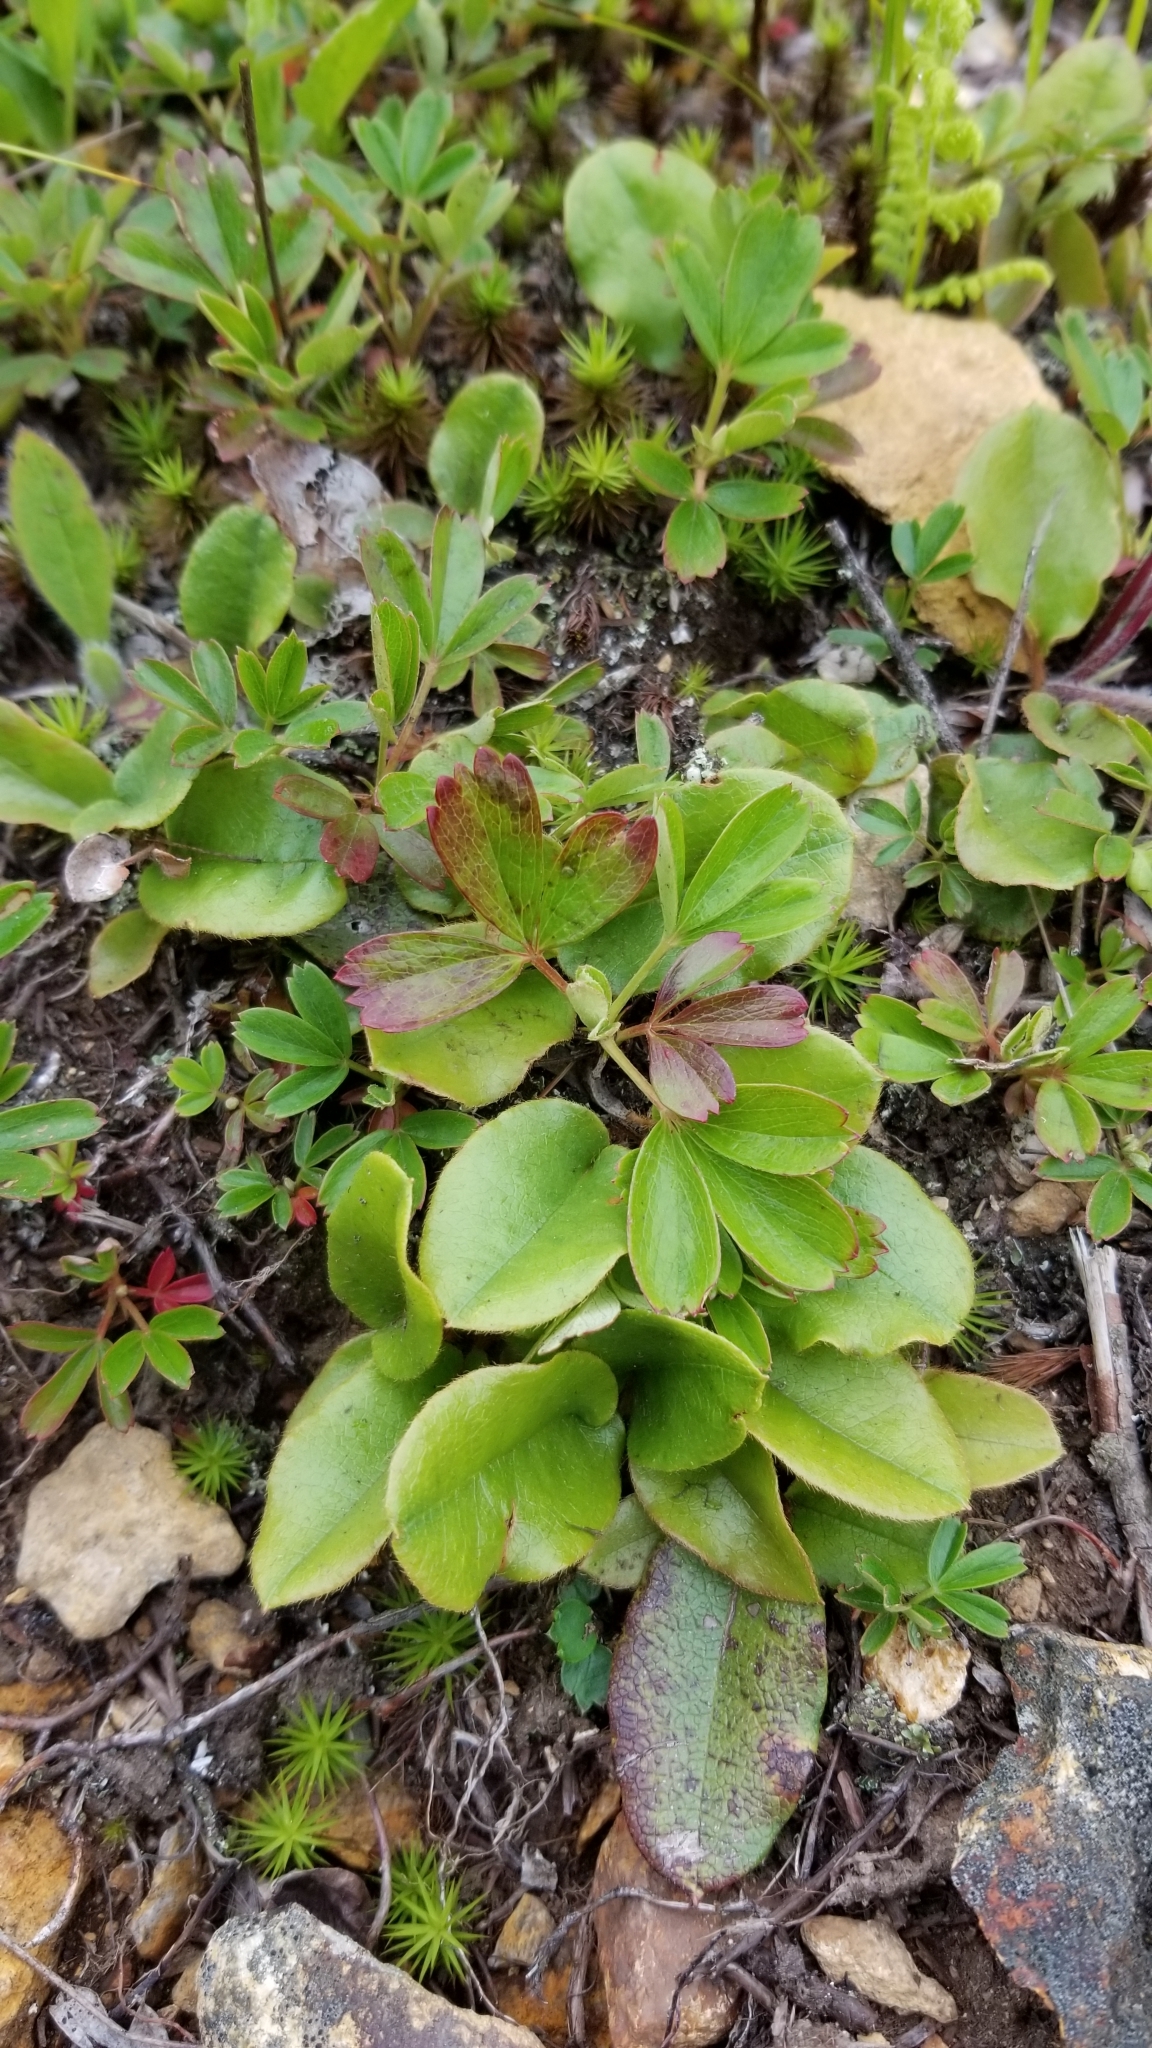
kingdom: Plantae
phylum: Tracheophyta
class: Magnoliopsida
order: Ericales
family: Ericaceae
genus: Epigaea
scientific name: Epigaea repens
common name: Gravelroot
